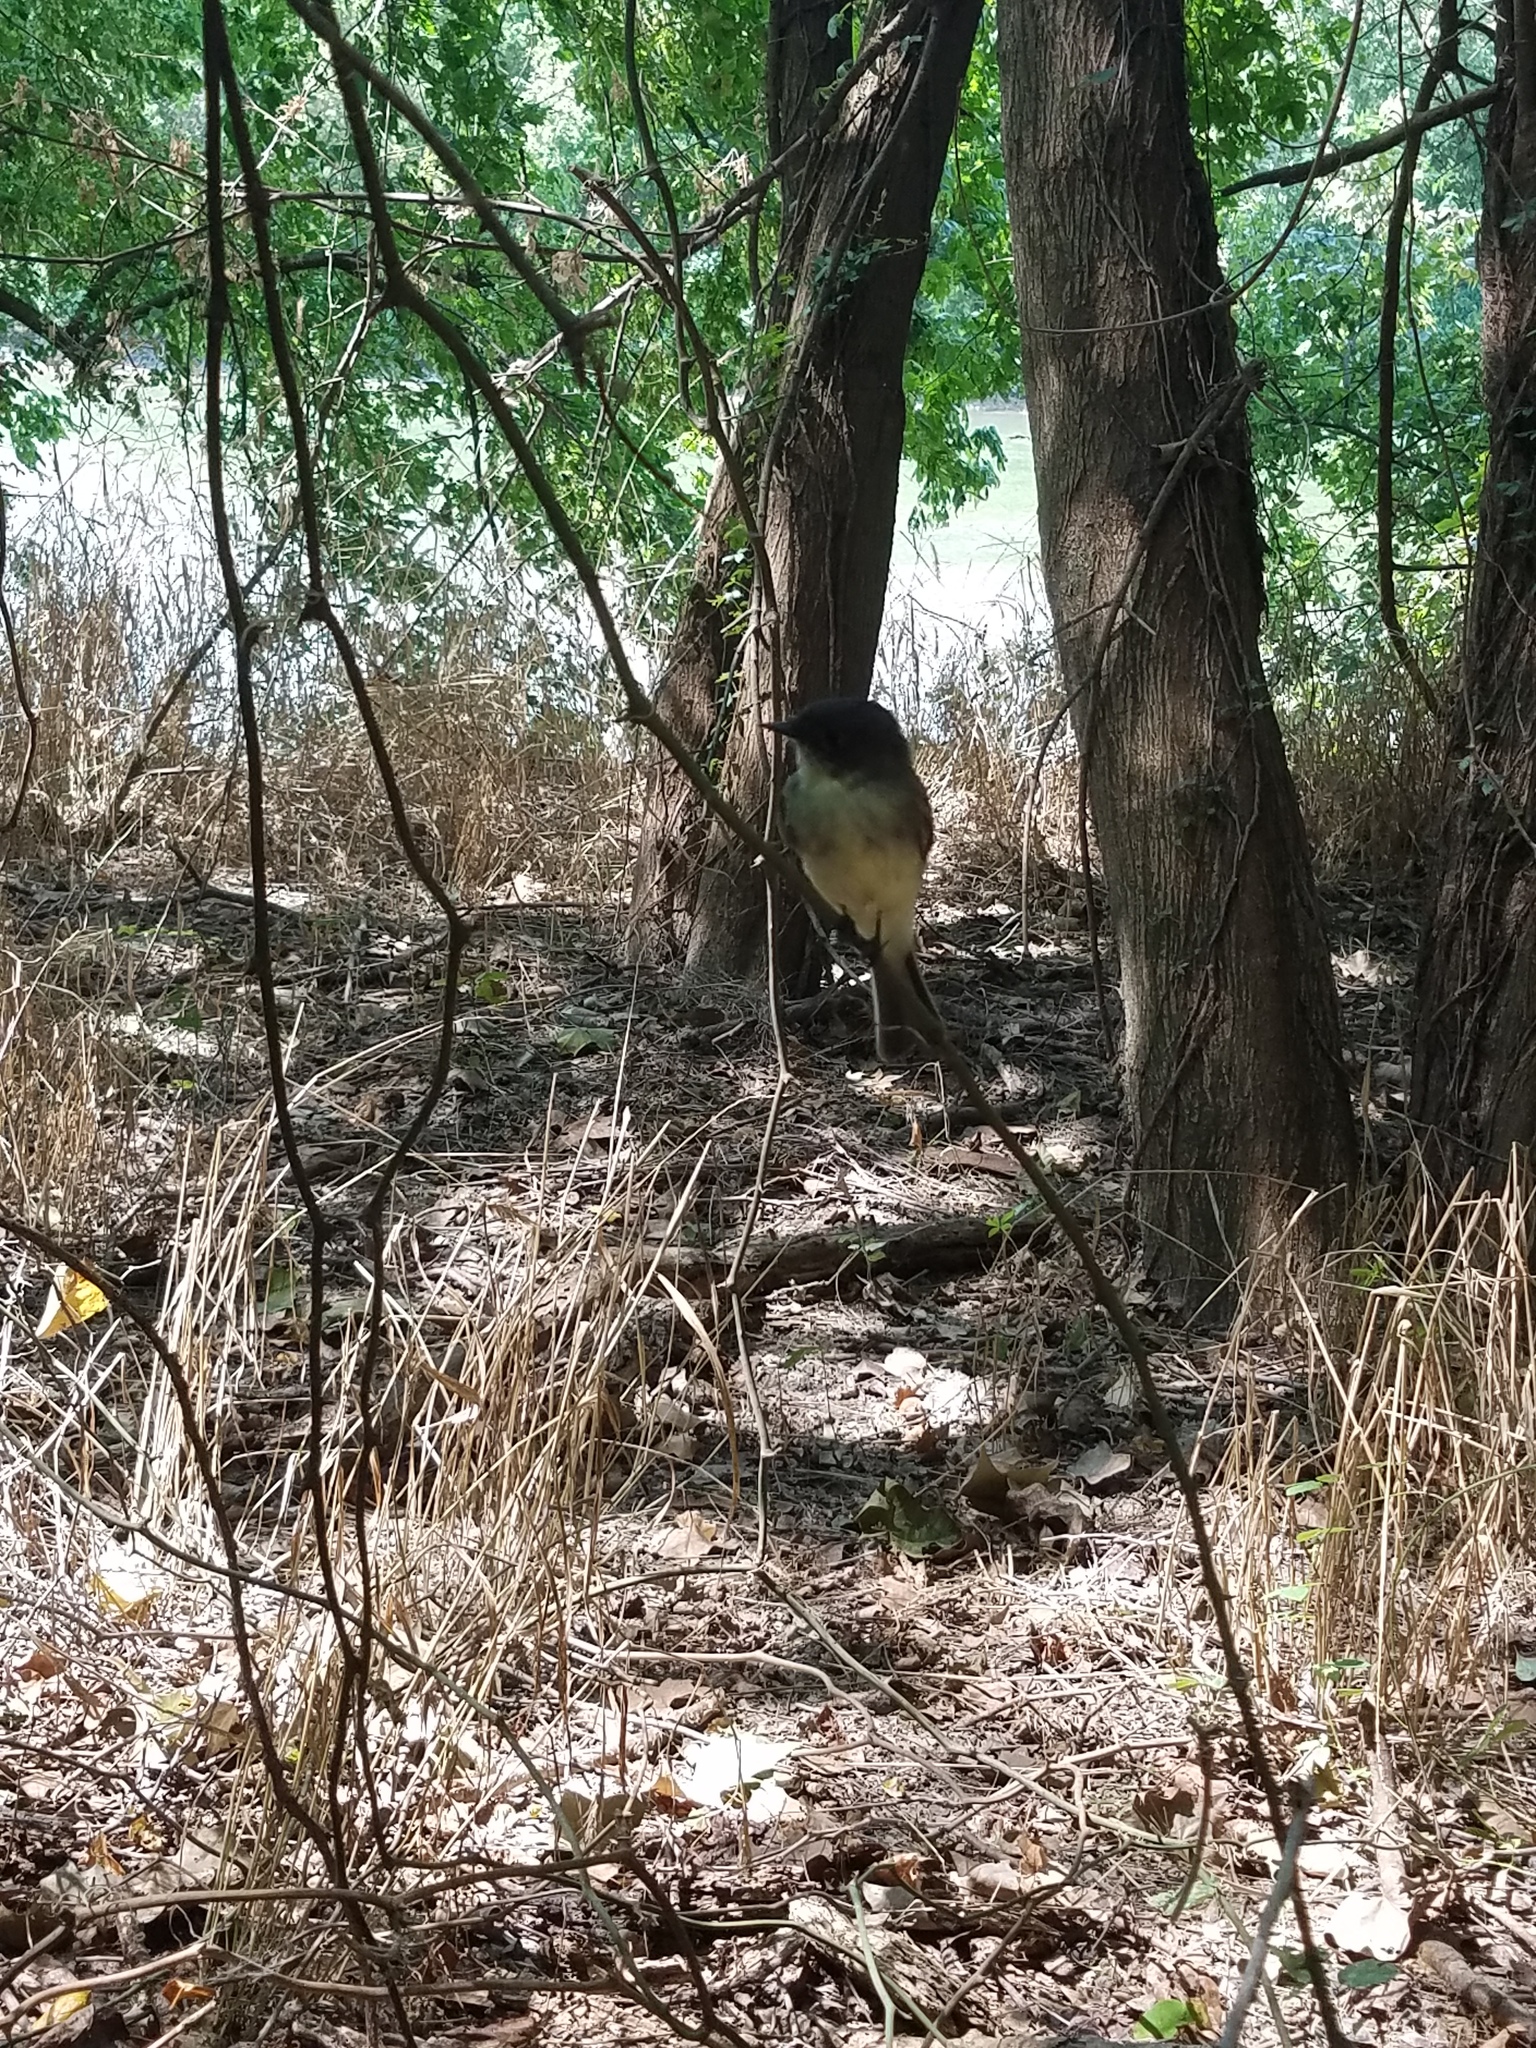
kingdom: Animalia
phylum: Chordata
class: Aves
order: Passeriformes
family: Tyrannidae
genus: Sayornis
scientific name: Sayornis phoebe
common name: Eastern phoebe
